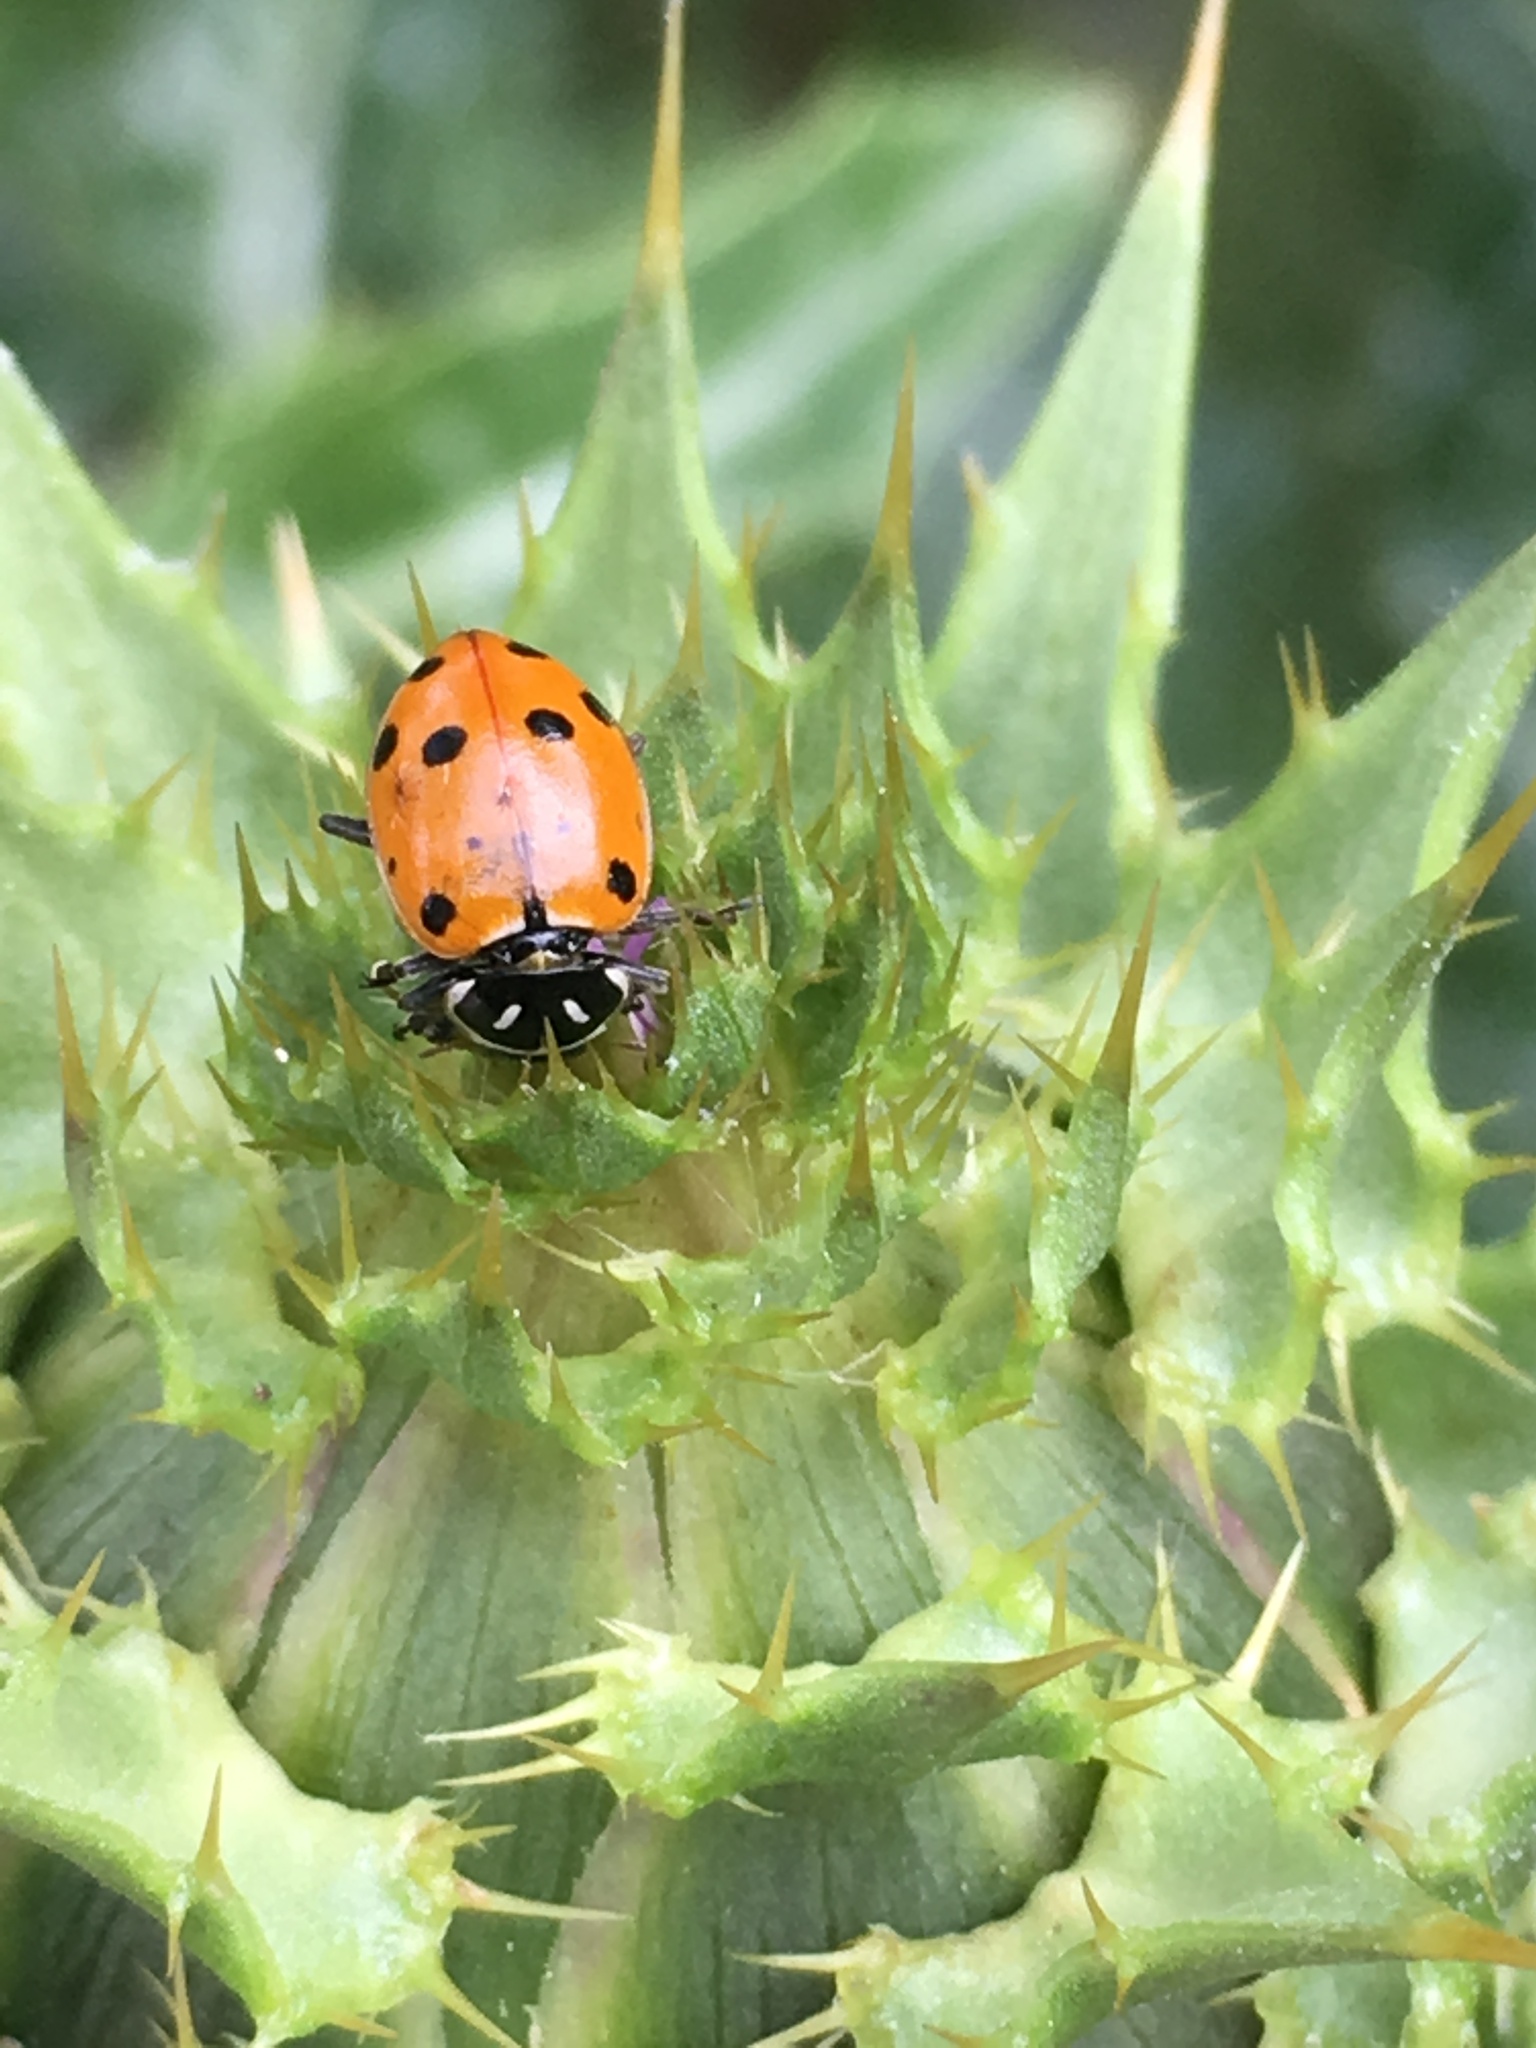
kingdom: Animalia
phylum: Arthropoda
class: Insecta
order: Coleoptera
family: Coccinellidae
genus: Hippodamia
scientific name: Hippodamia convergens
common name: Convergent lady beetle
